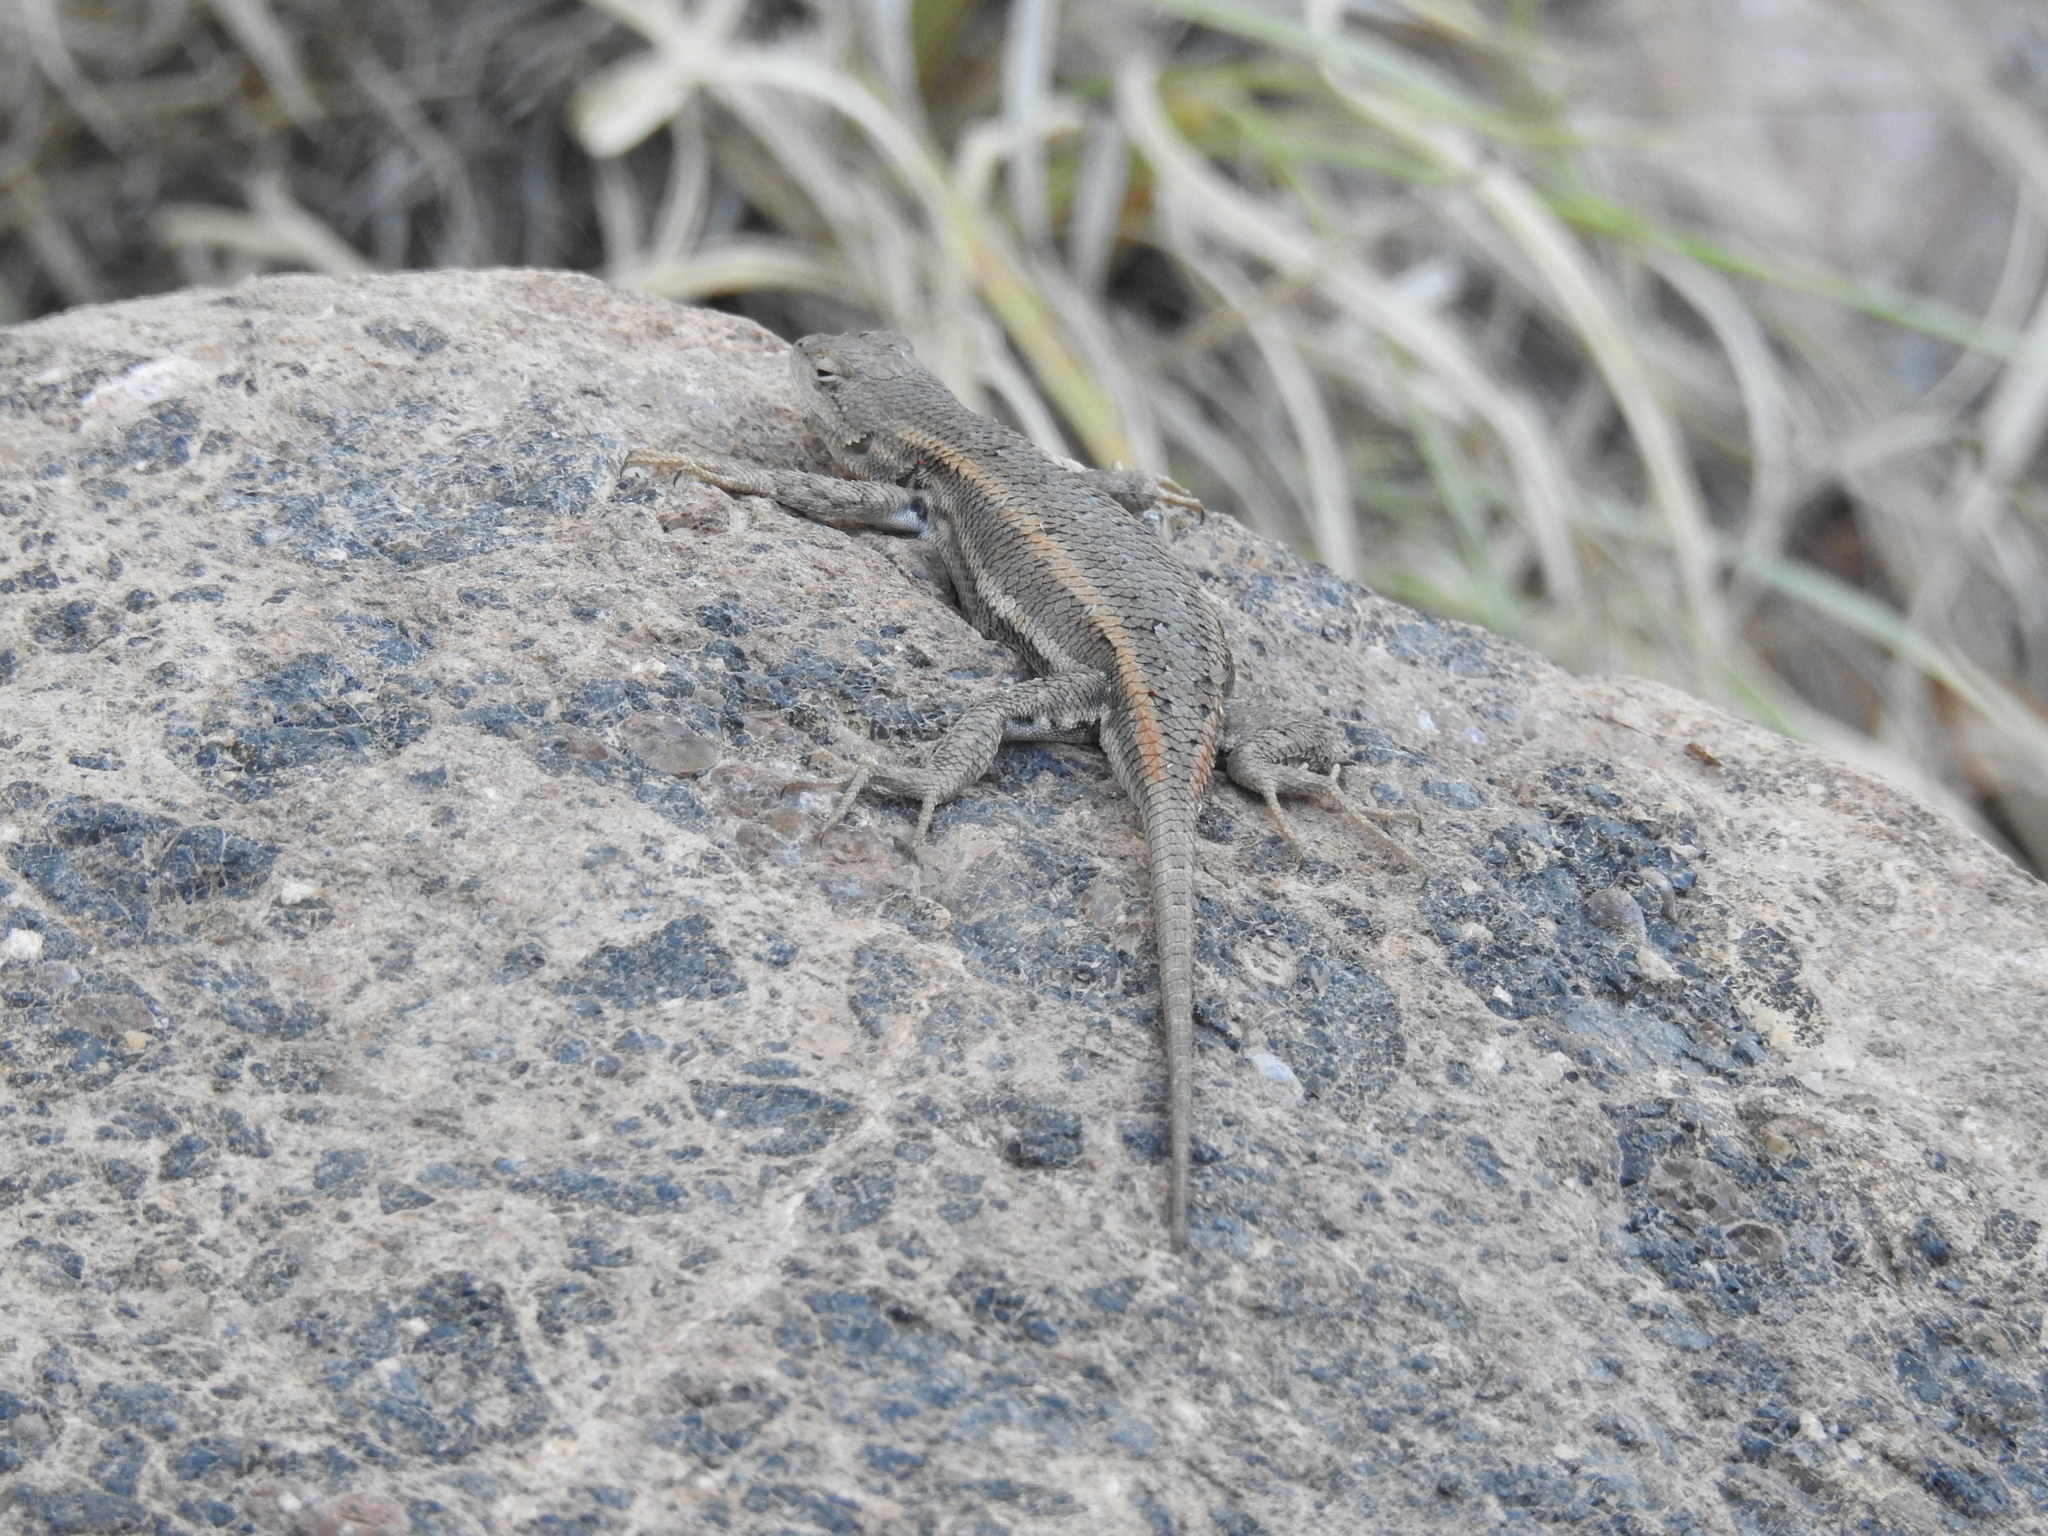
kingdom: Animalia
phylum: Chordata
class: Squamata
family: Phrynosomatidae
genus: Sceloporus
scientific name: Sceloporus virgatus
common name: Striped plateau lizard
